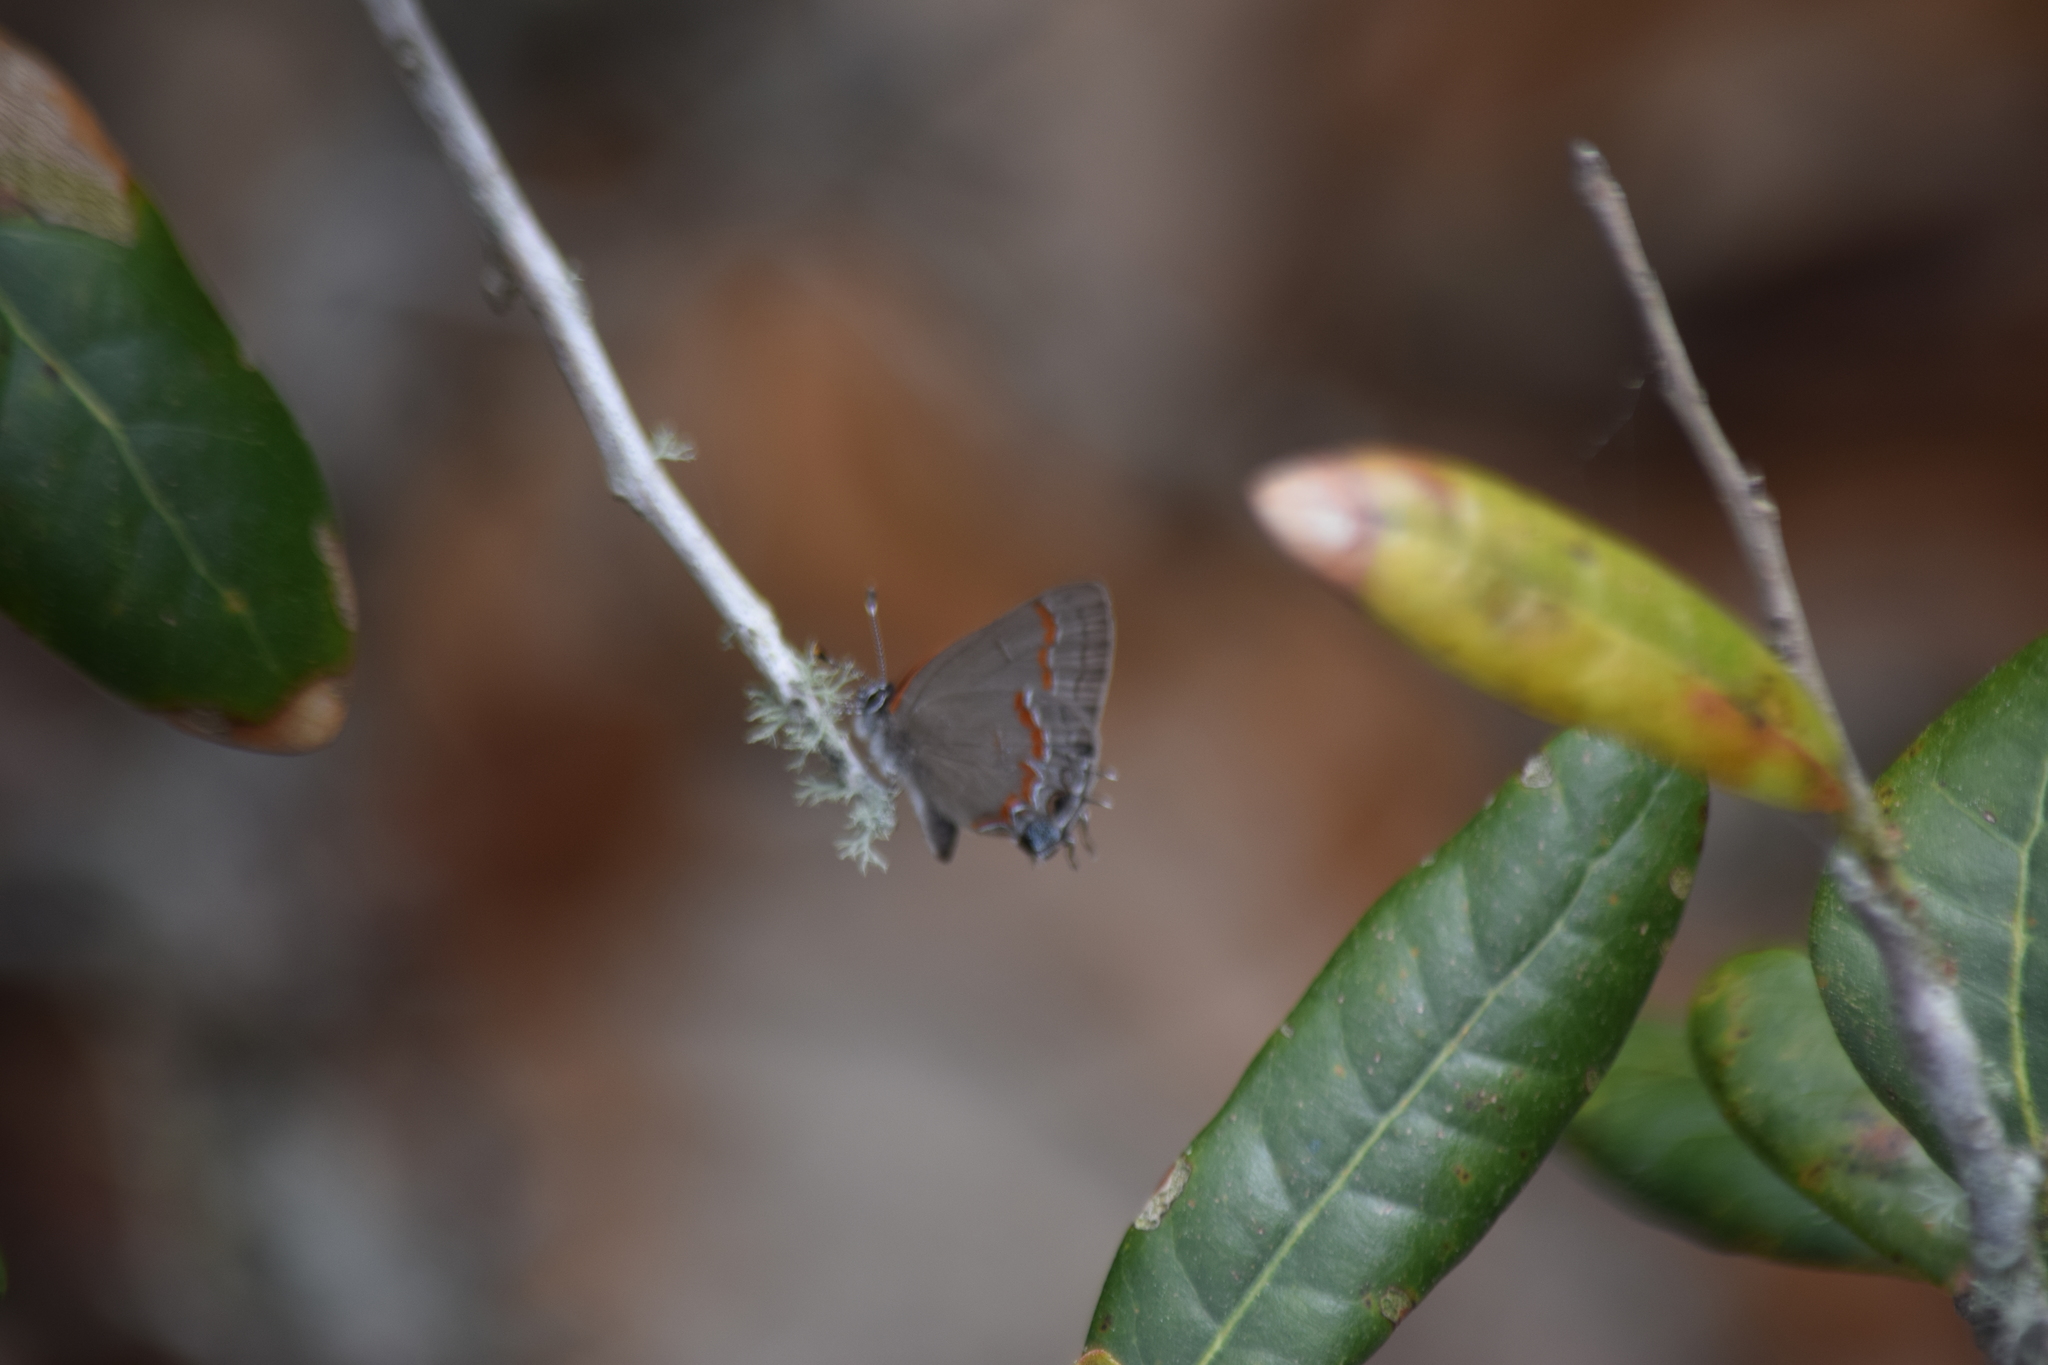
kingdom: Animalia
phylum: Arthropoda
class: Insecta
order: Lepidoptera
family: Lycaenidae
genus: Calycopis
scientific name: Calycopis cecrops
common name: Red-banded hairstreak
